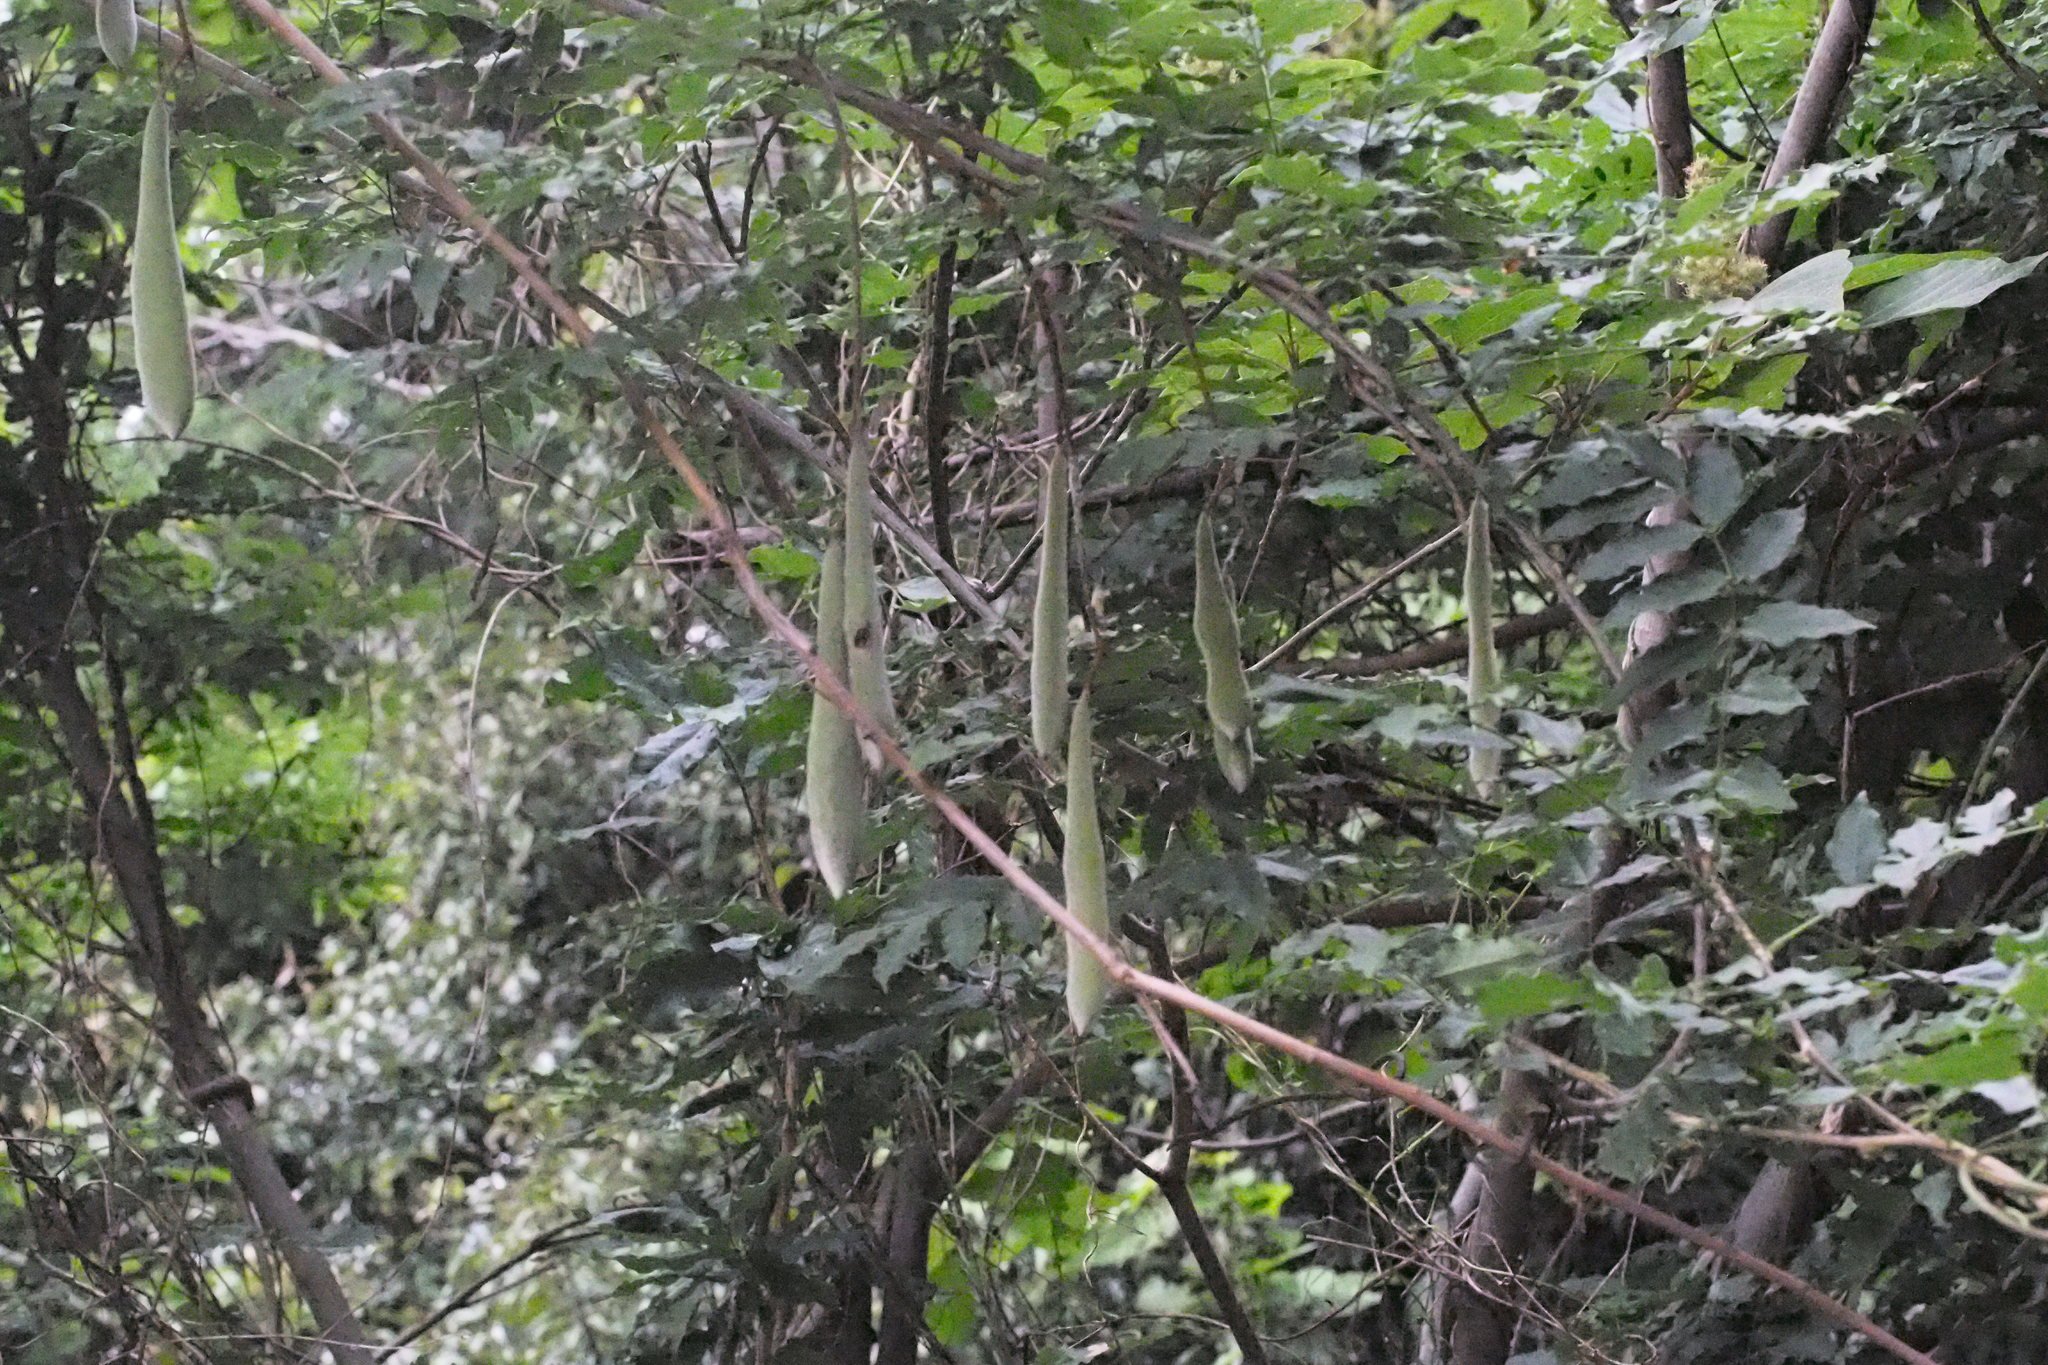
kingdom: Plantae
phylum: Tracheophyta
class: Magnoliopsida
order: Fabales
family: Fabaceae
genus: Wisteria
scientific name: Wisteria floribunda
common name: Japanese wisteria
